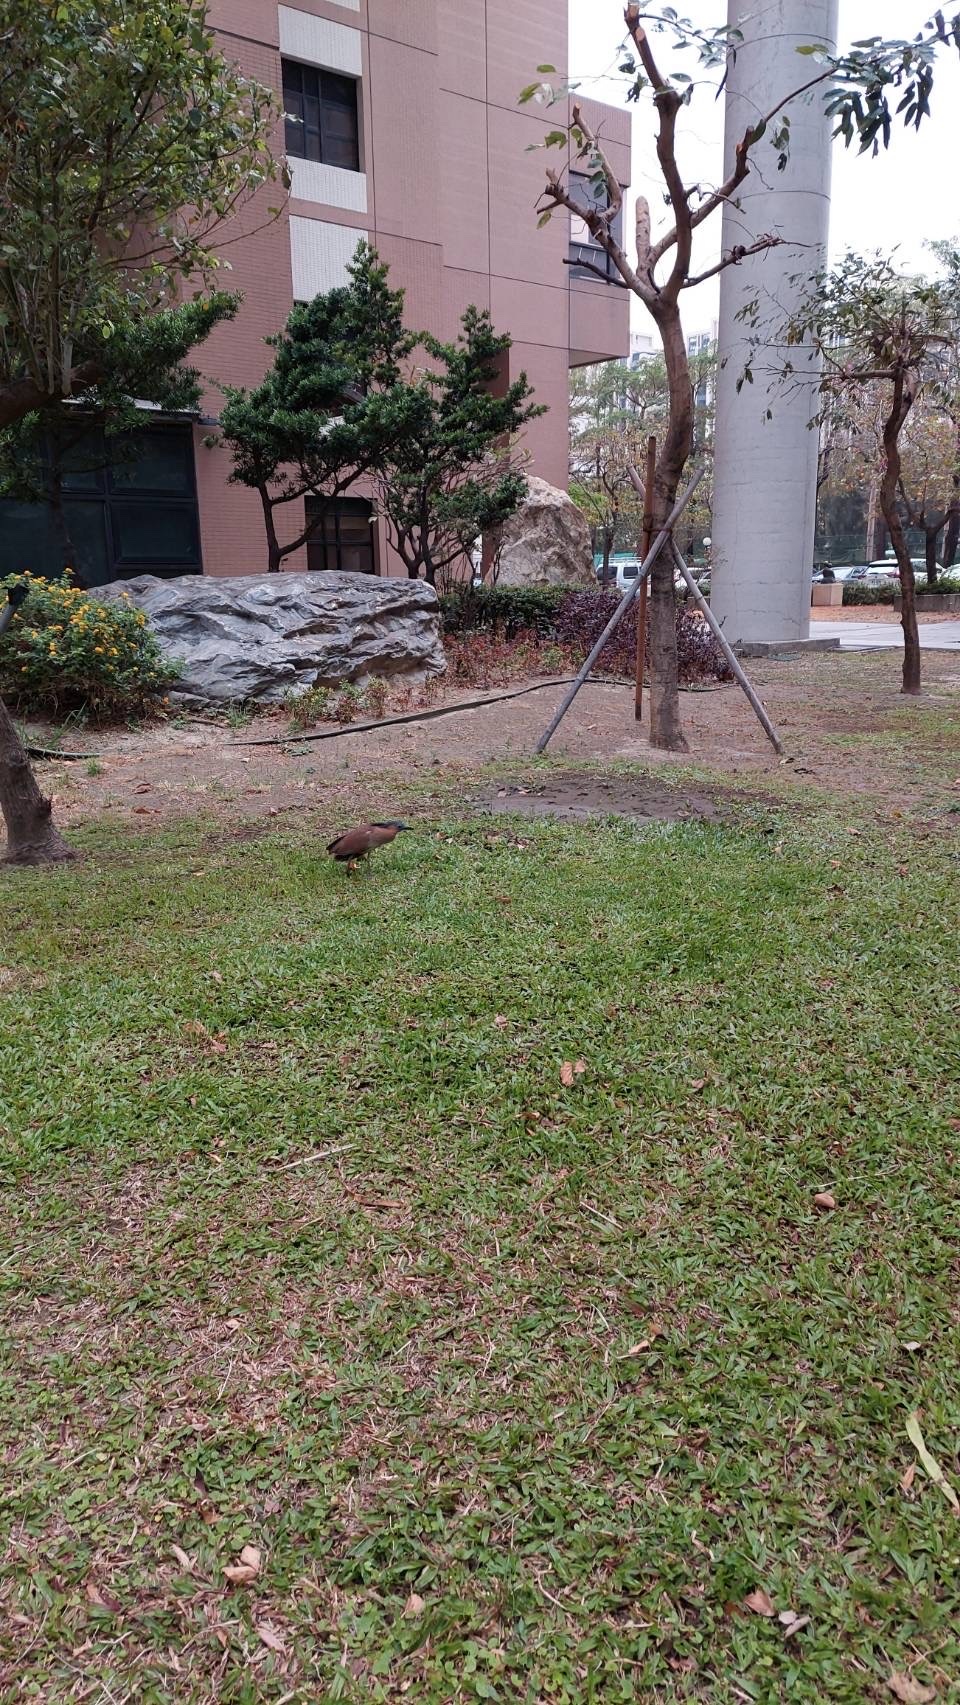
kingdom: Animalia
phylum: Chordata
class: Aves
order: Pelecaniformes
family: Ardeidae
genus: Gorsachius
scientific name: Gorsachius melanolophus
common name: Malayan night heron
